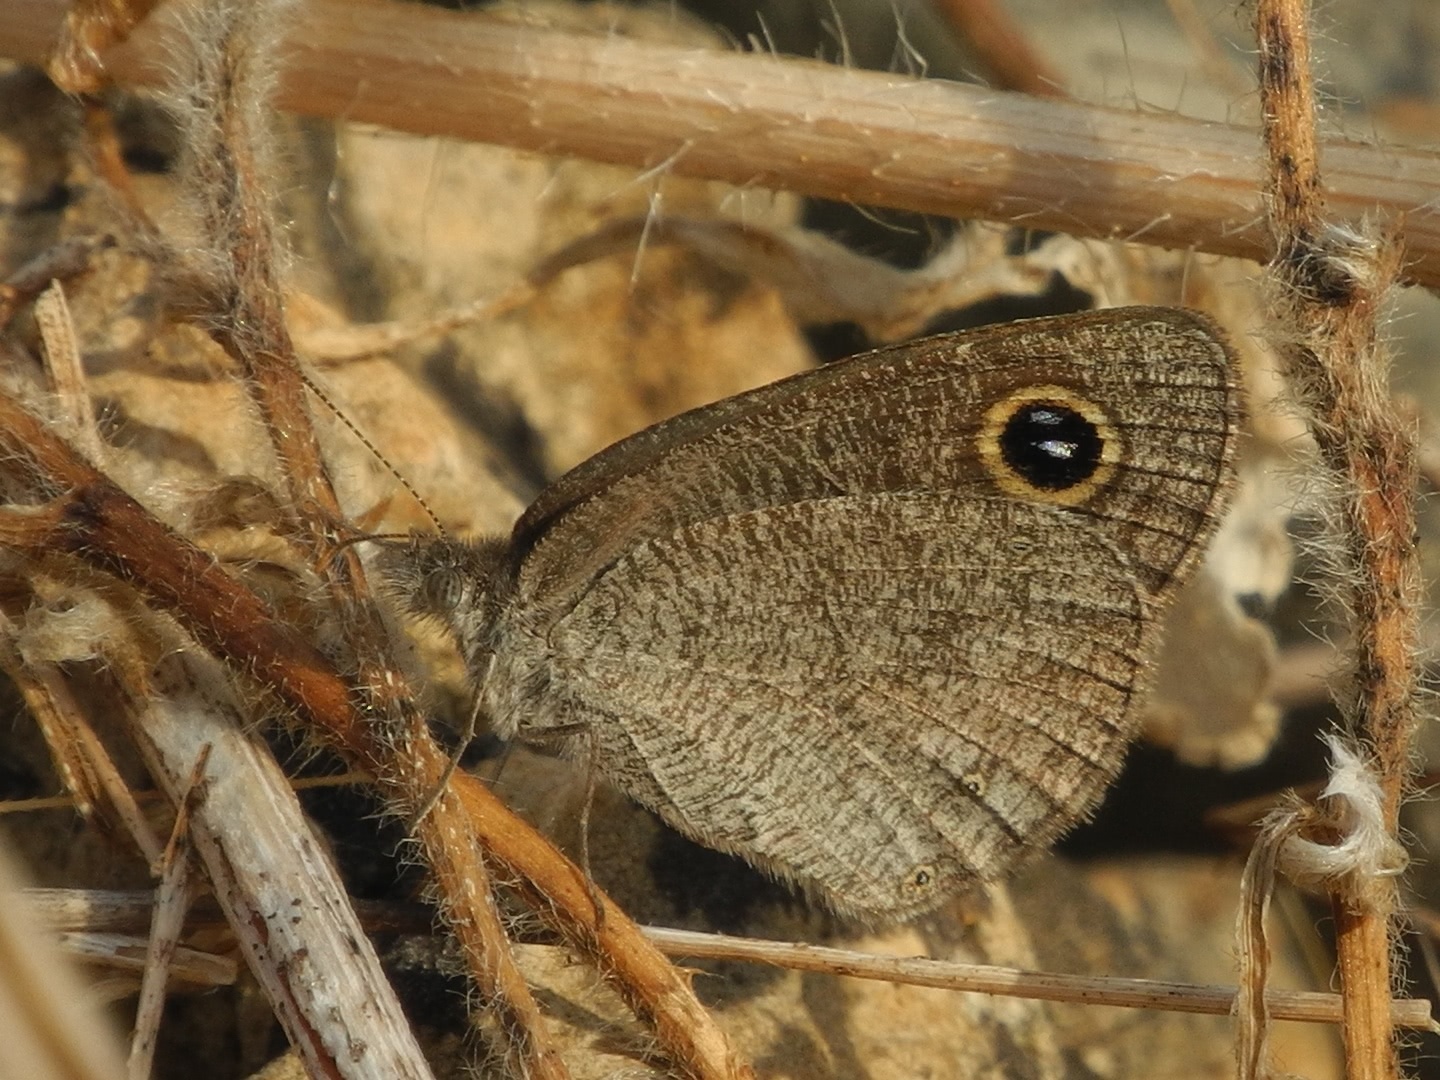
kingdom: Animalia
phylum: Arthropoda
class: Insecta
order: Lepidoptera
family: Nymphalidae
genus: Ypthima
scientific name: Ypthima asterope
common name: African ringlet
